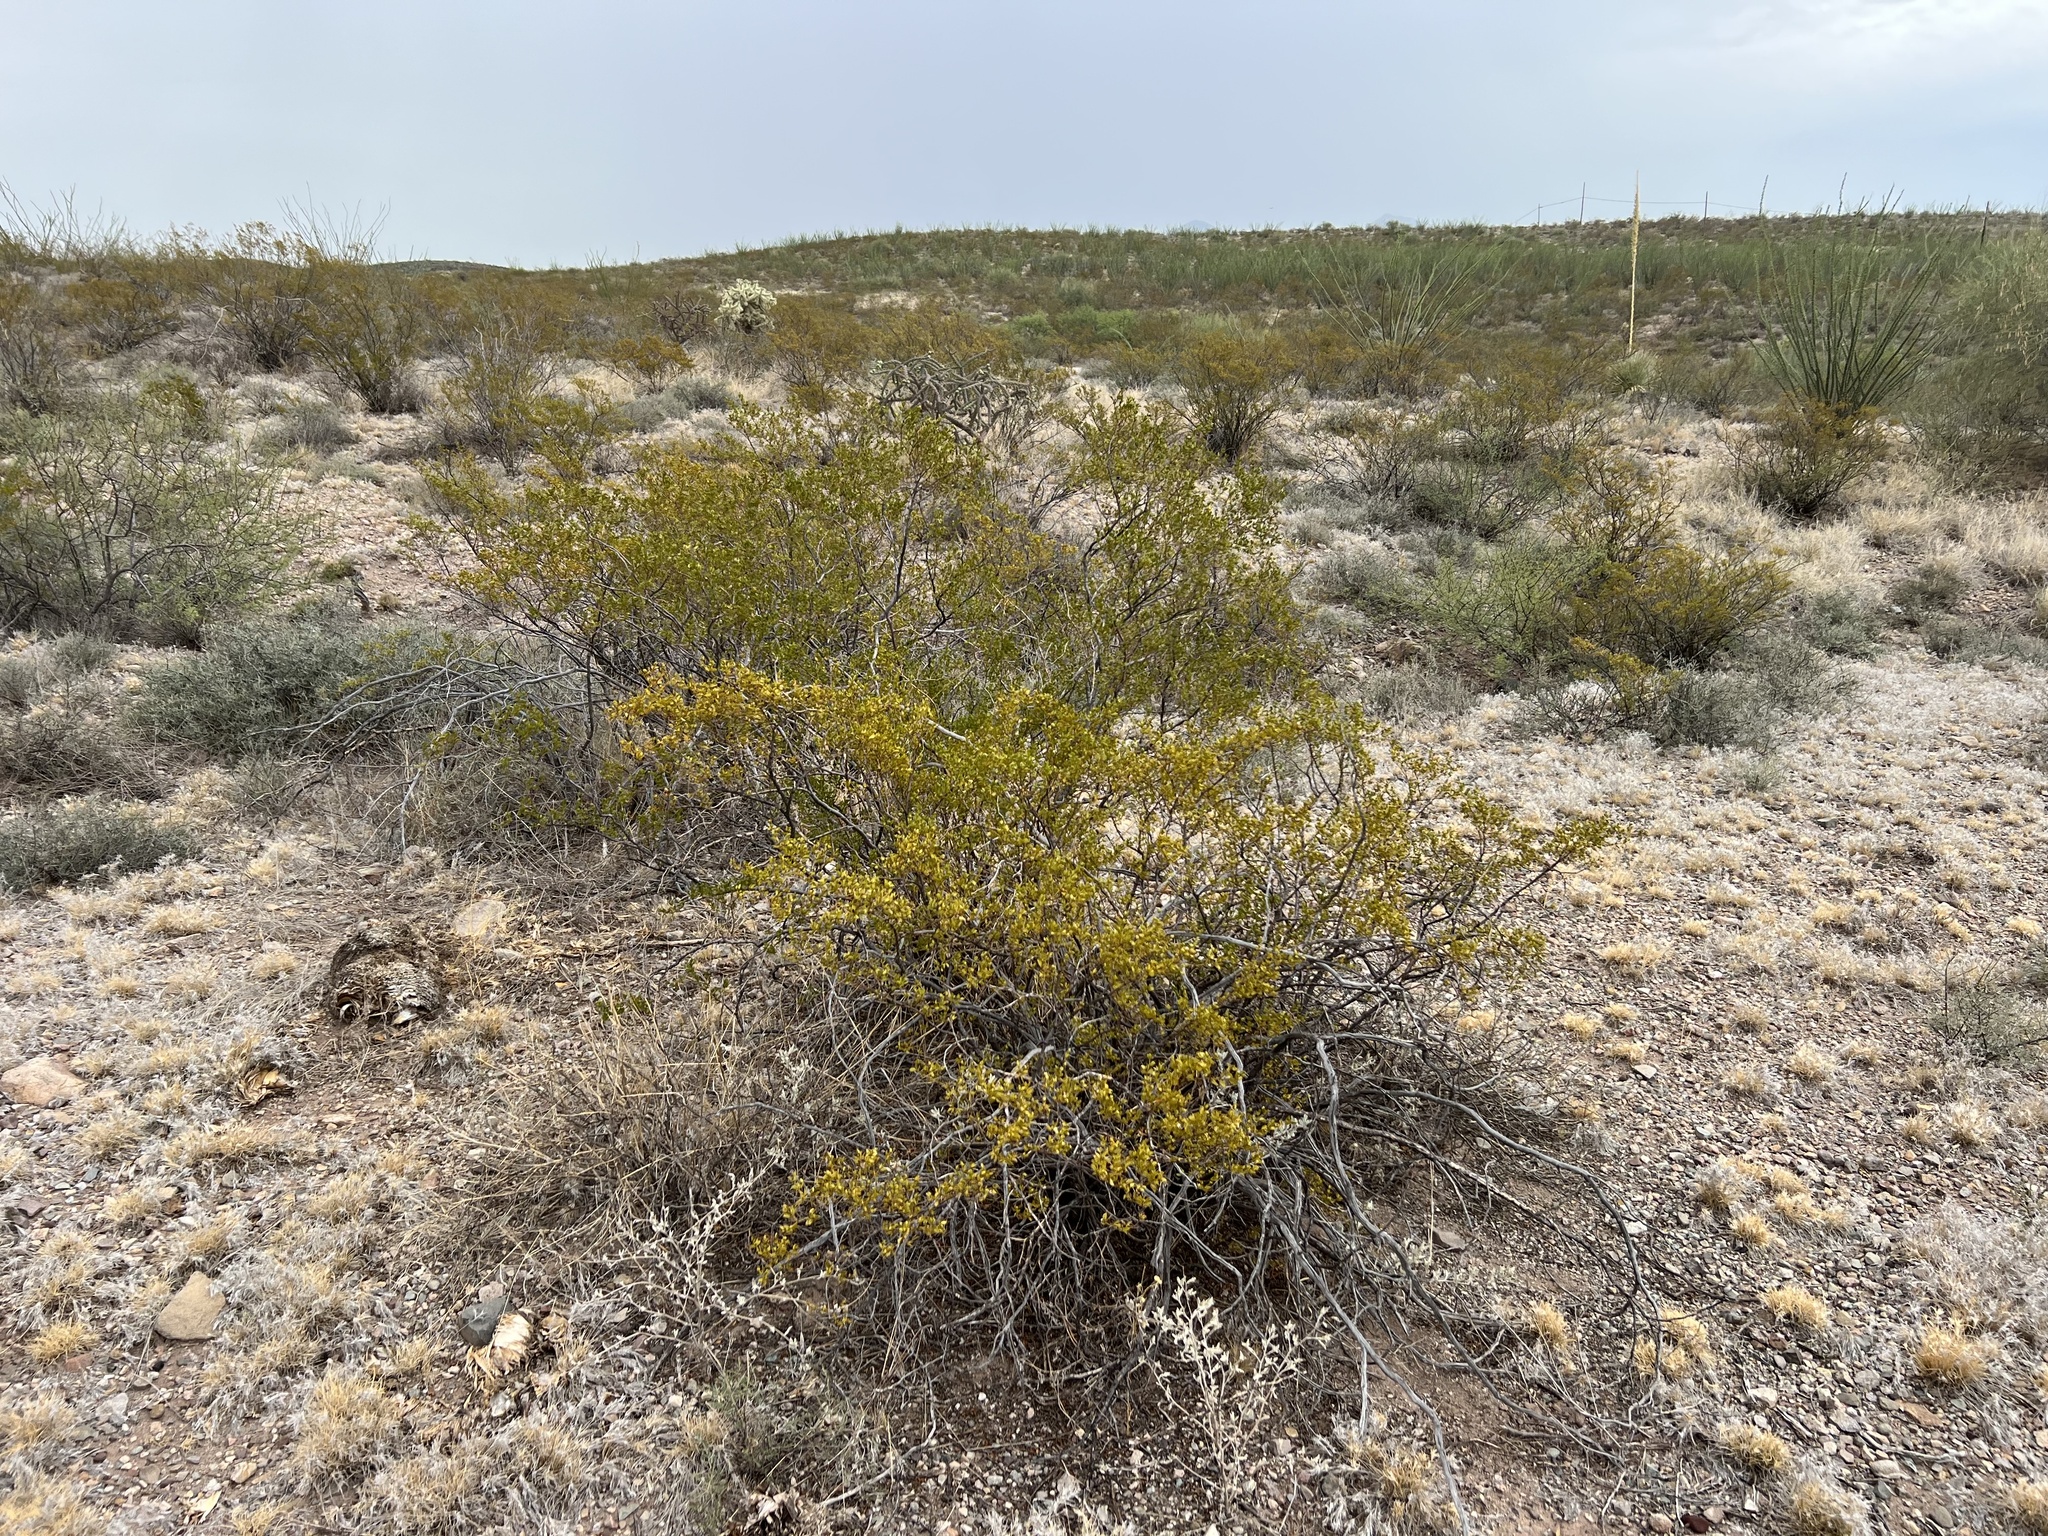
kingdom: Plantae
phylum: Tracheophyta
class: Magnoliopsida
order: Zygophyllales
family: Zygophyllaceae
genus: Larrea
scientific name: Larrea tridentata
